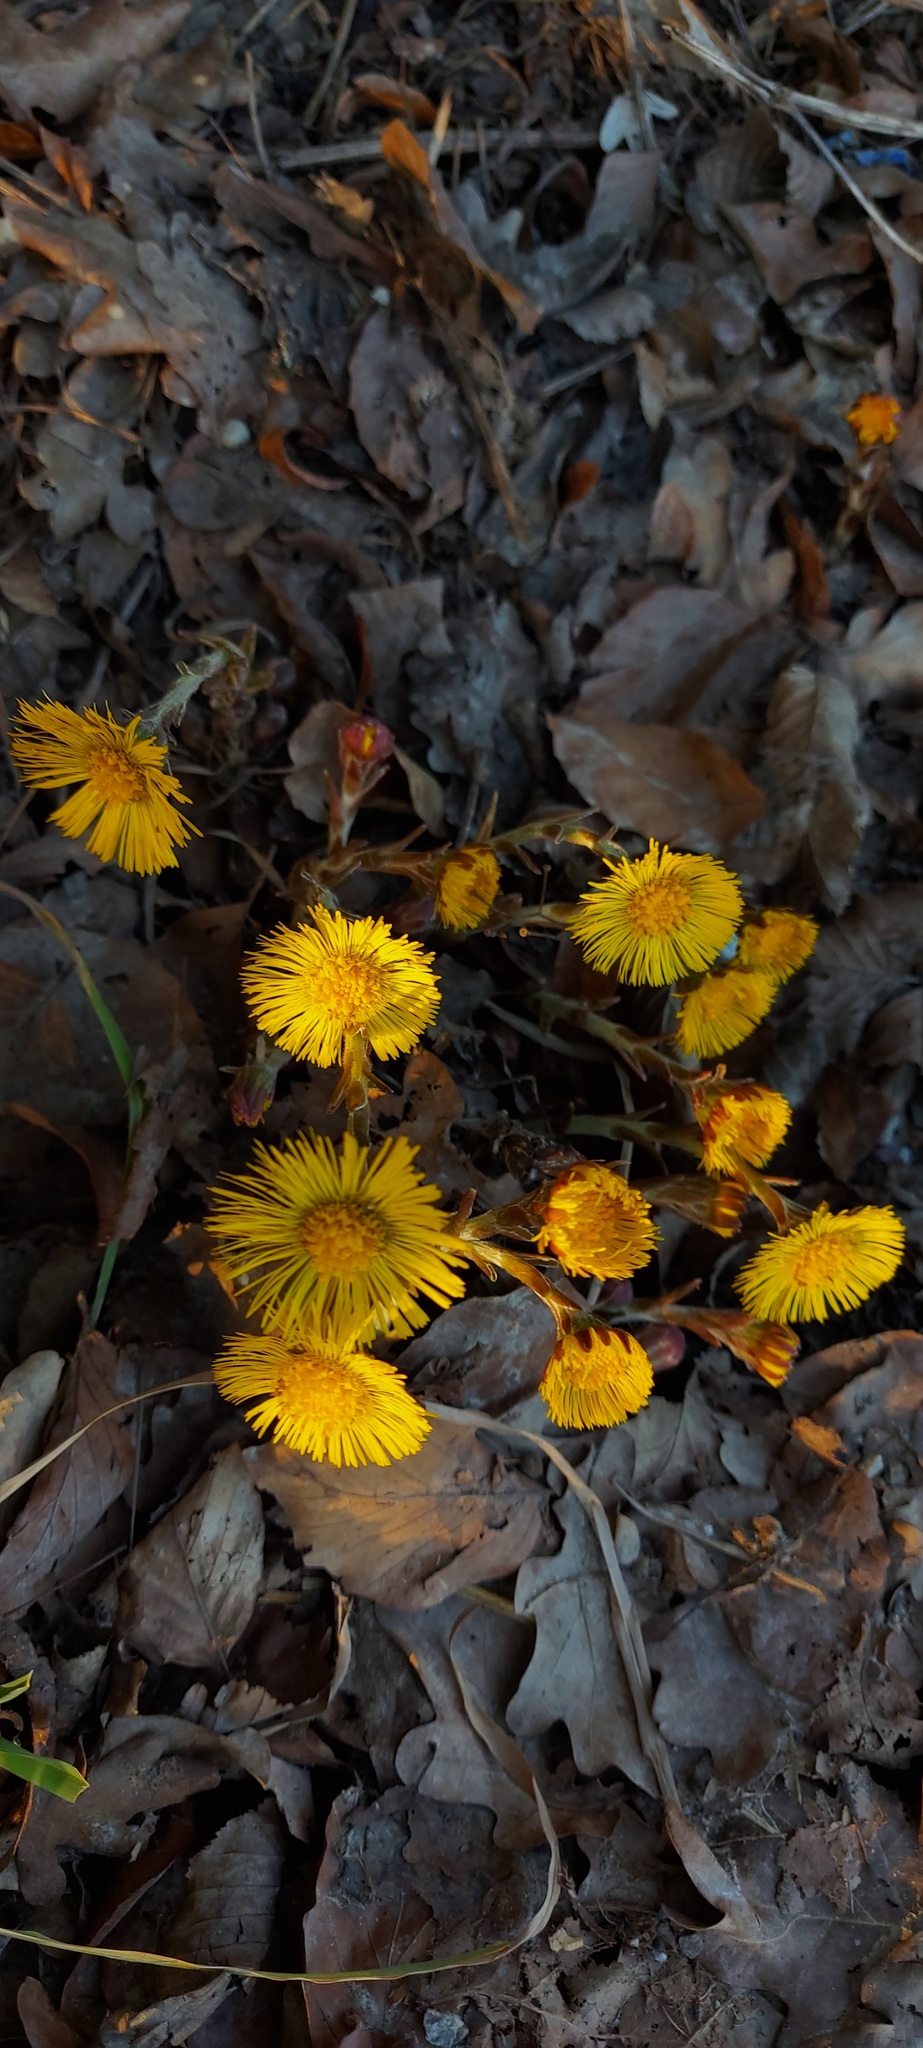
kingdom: Plantae
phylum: Tracheophyta
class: Magnoliopsida
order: Asterales
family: Asteraceae
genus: Tussilago
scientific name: Tussilago farfara
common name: Coltsfoot
